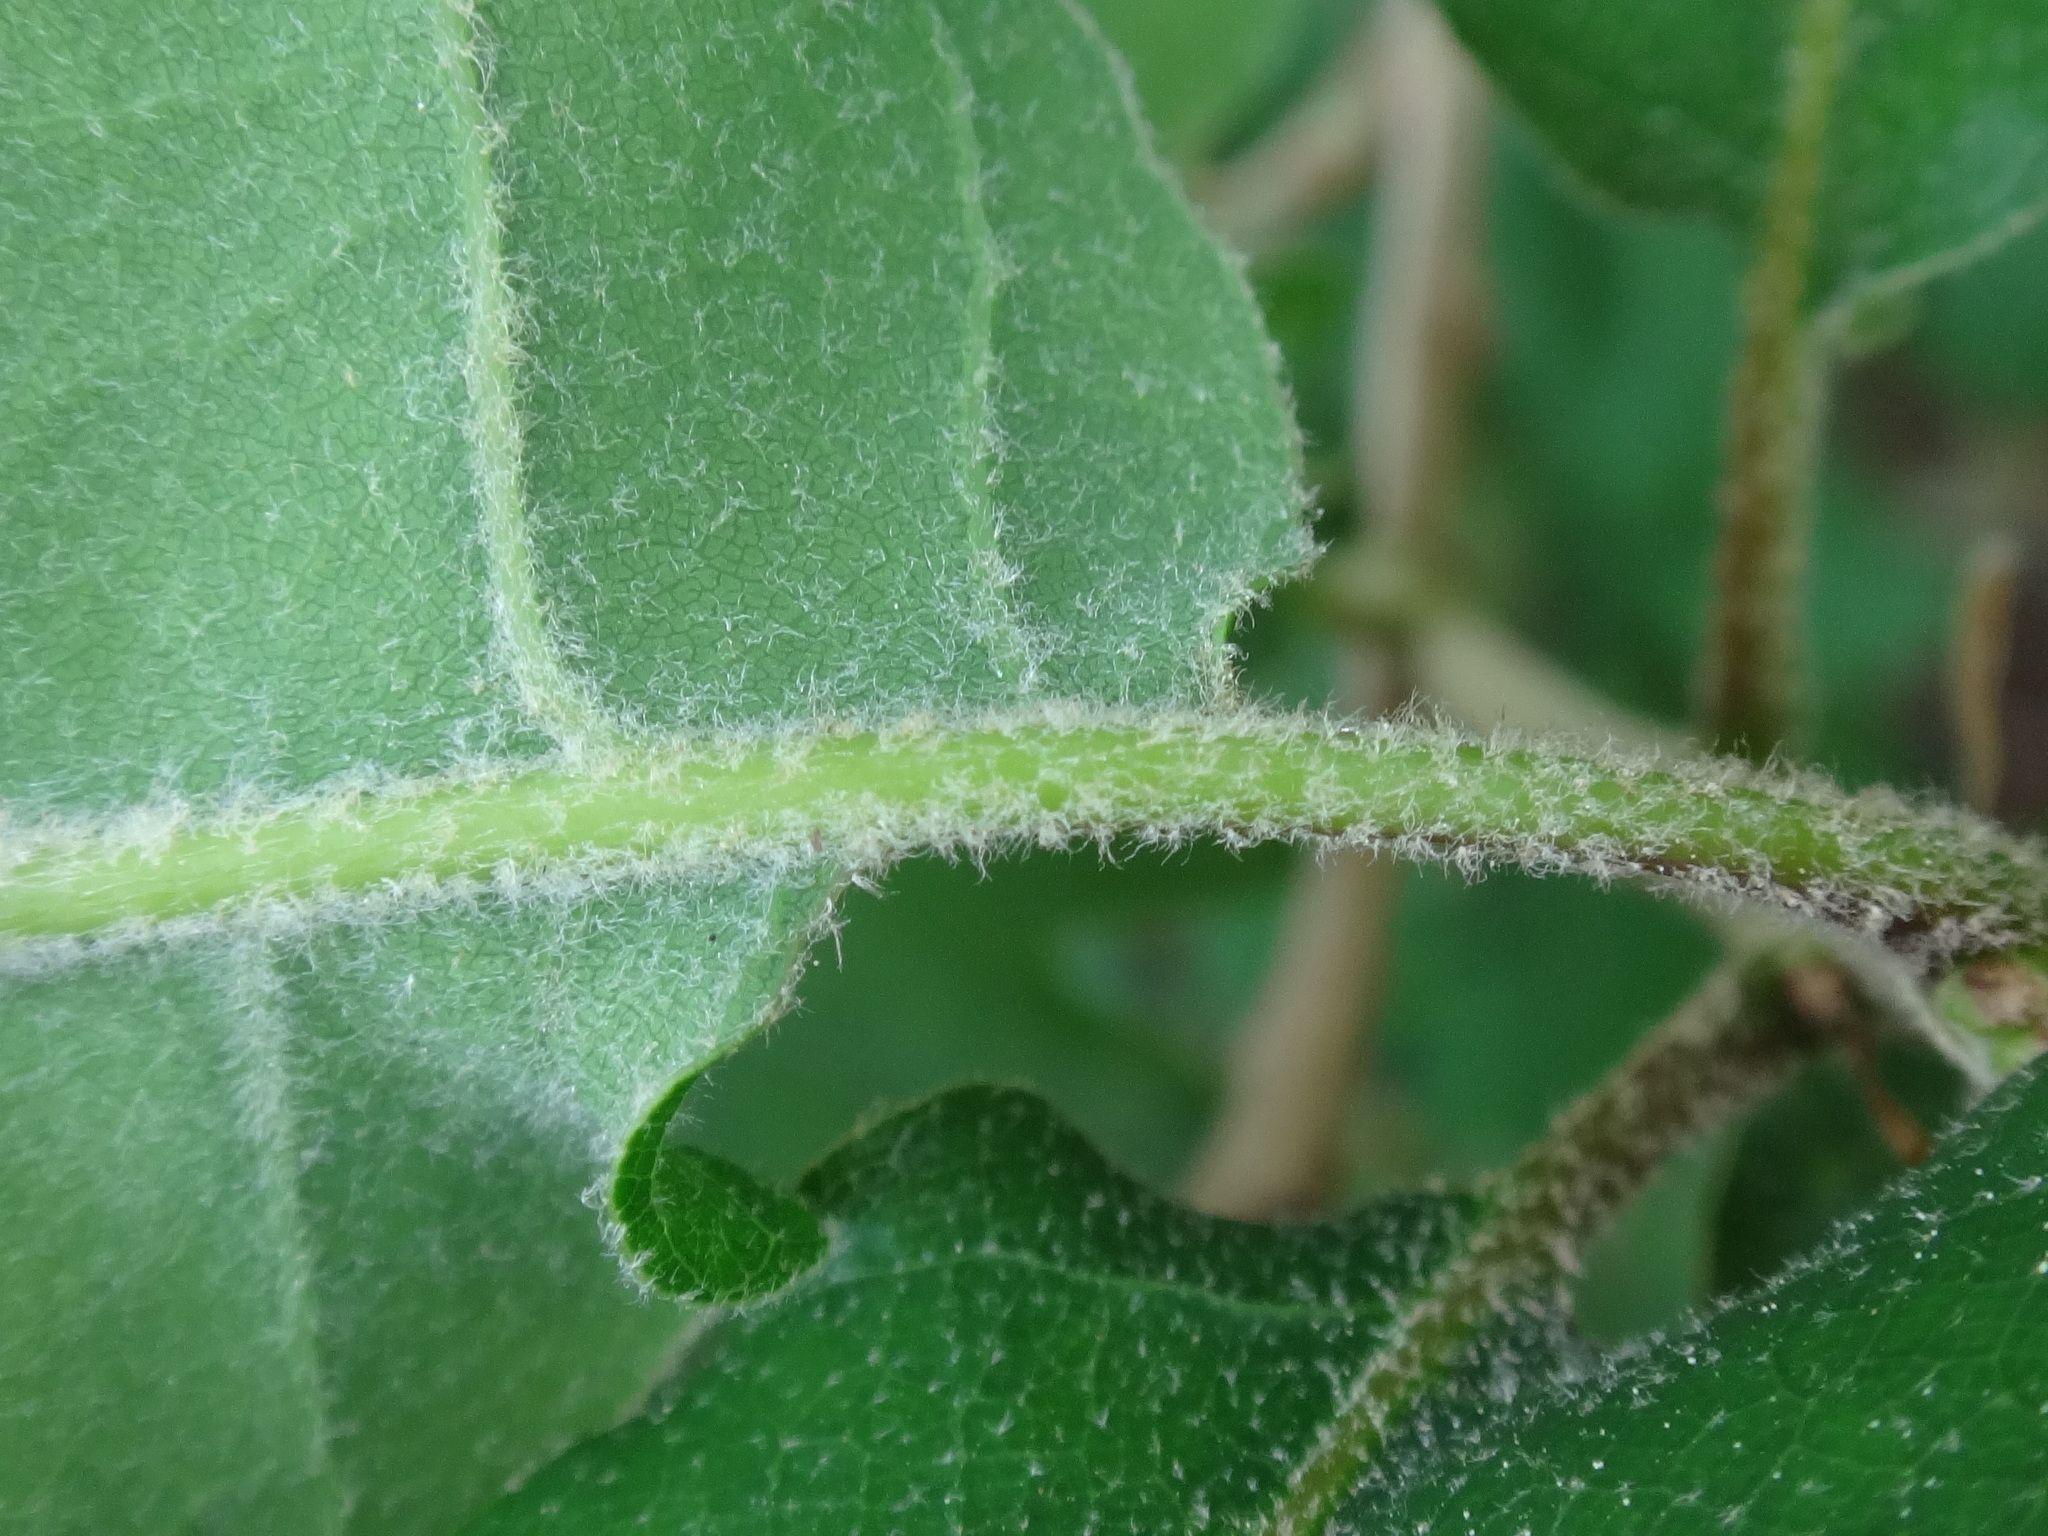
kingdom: Plantae
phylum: Tracheophyta
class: Magnoliopsida
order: Fagales
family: Fagaceae
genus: Quercus
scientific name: Quercus pubescens
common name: Downy oak
